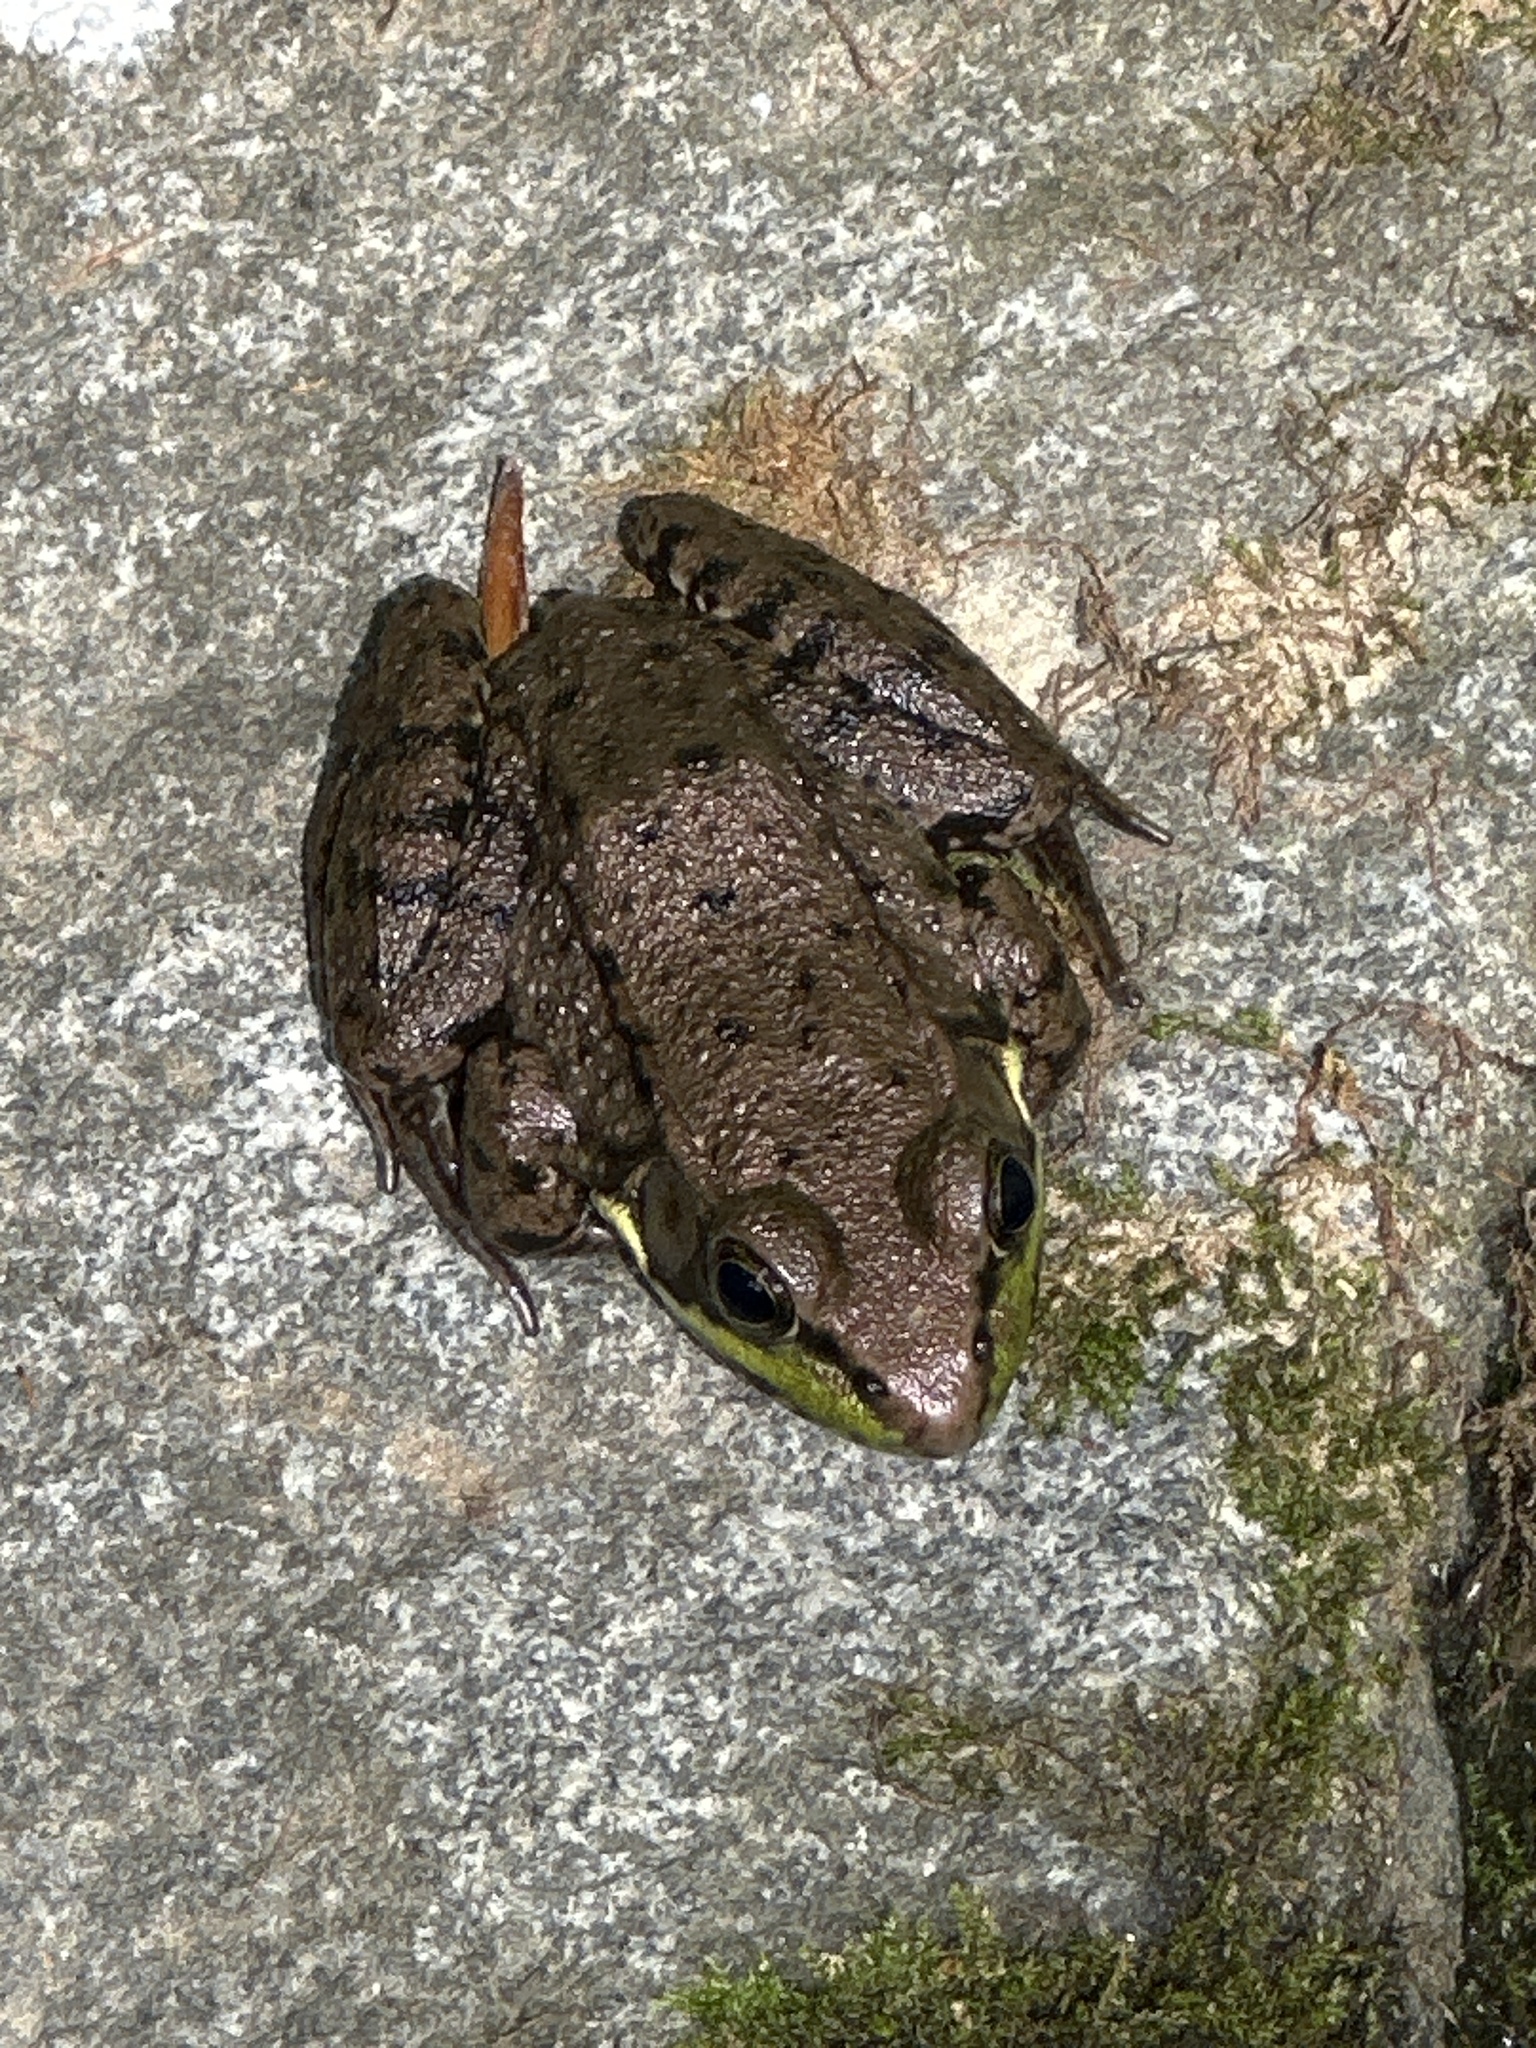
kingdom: Animalia
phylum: Chordata
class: Amphibia
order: Anura
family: Ranidae
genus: Lithobates
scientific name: Lithobates clamitans
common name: Green frog
